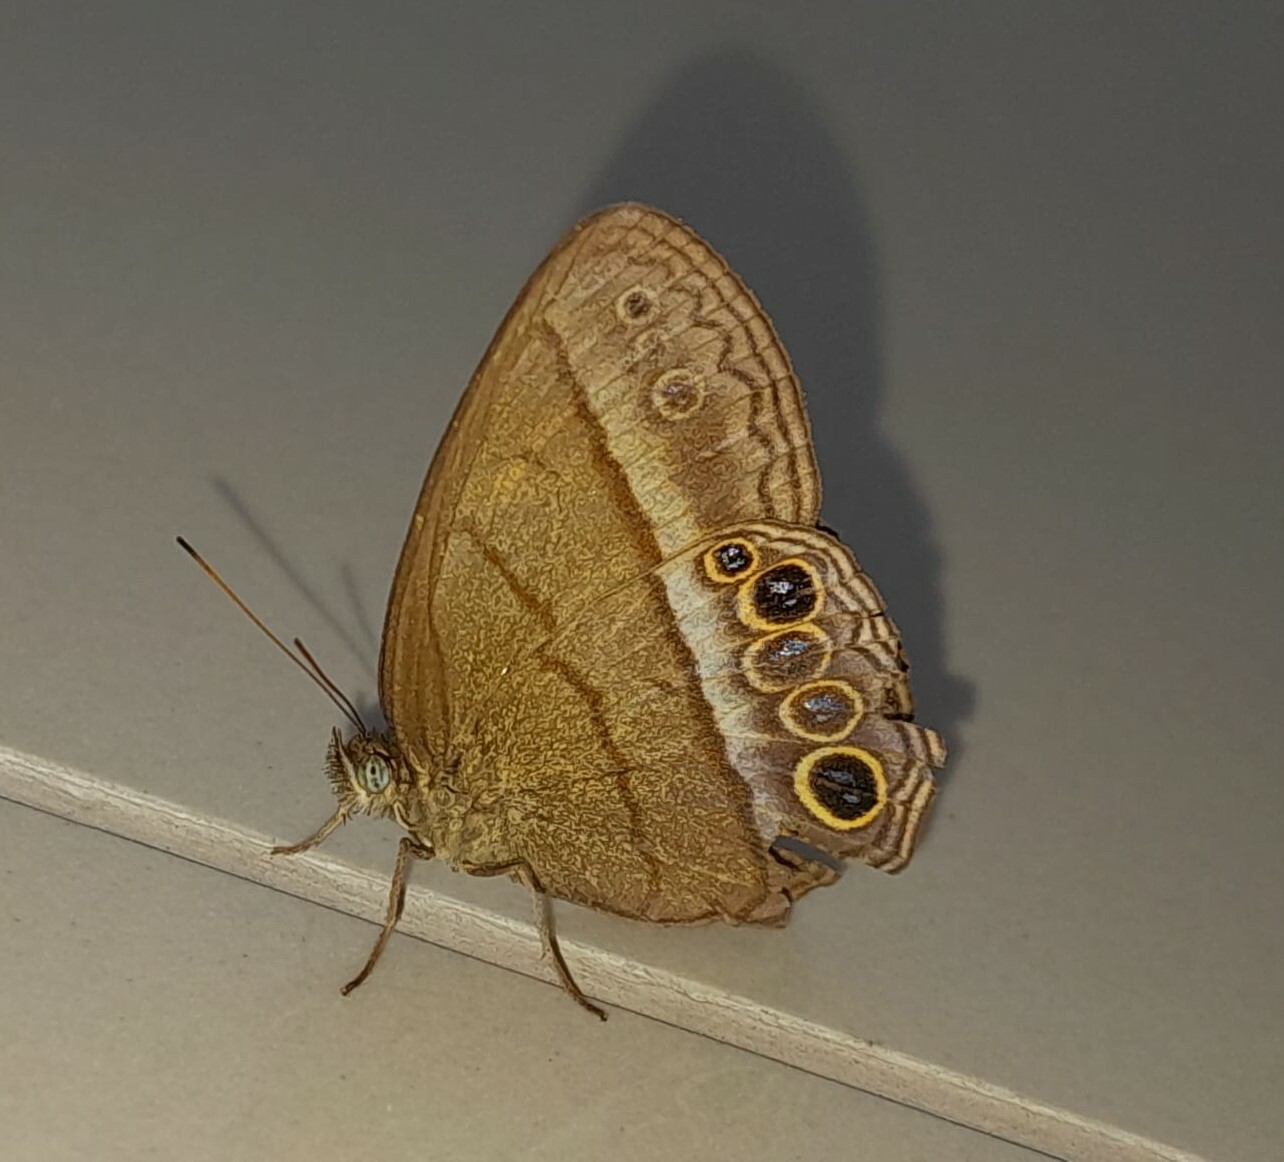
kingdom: Animalia
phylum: Arthropoda
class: Insecta
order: Lepidoptera
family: Nymphalidae
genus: Malaveria
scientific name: Malaveria
